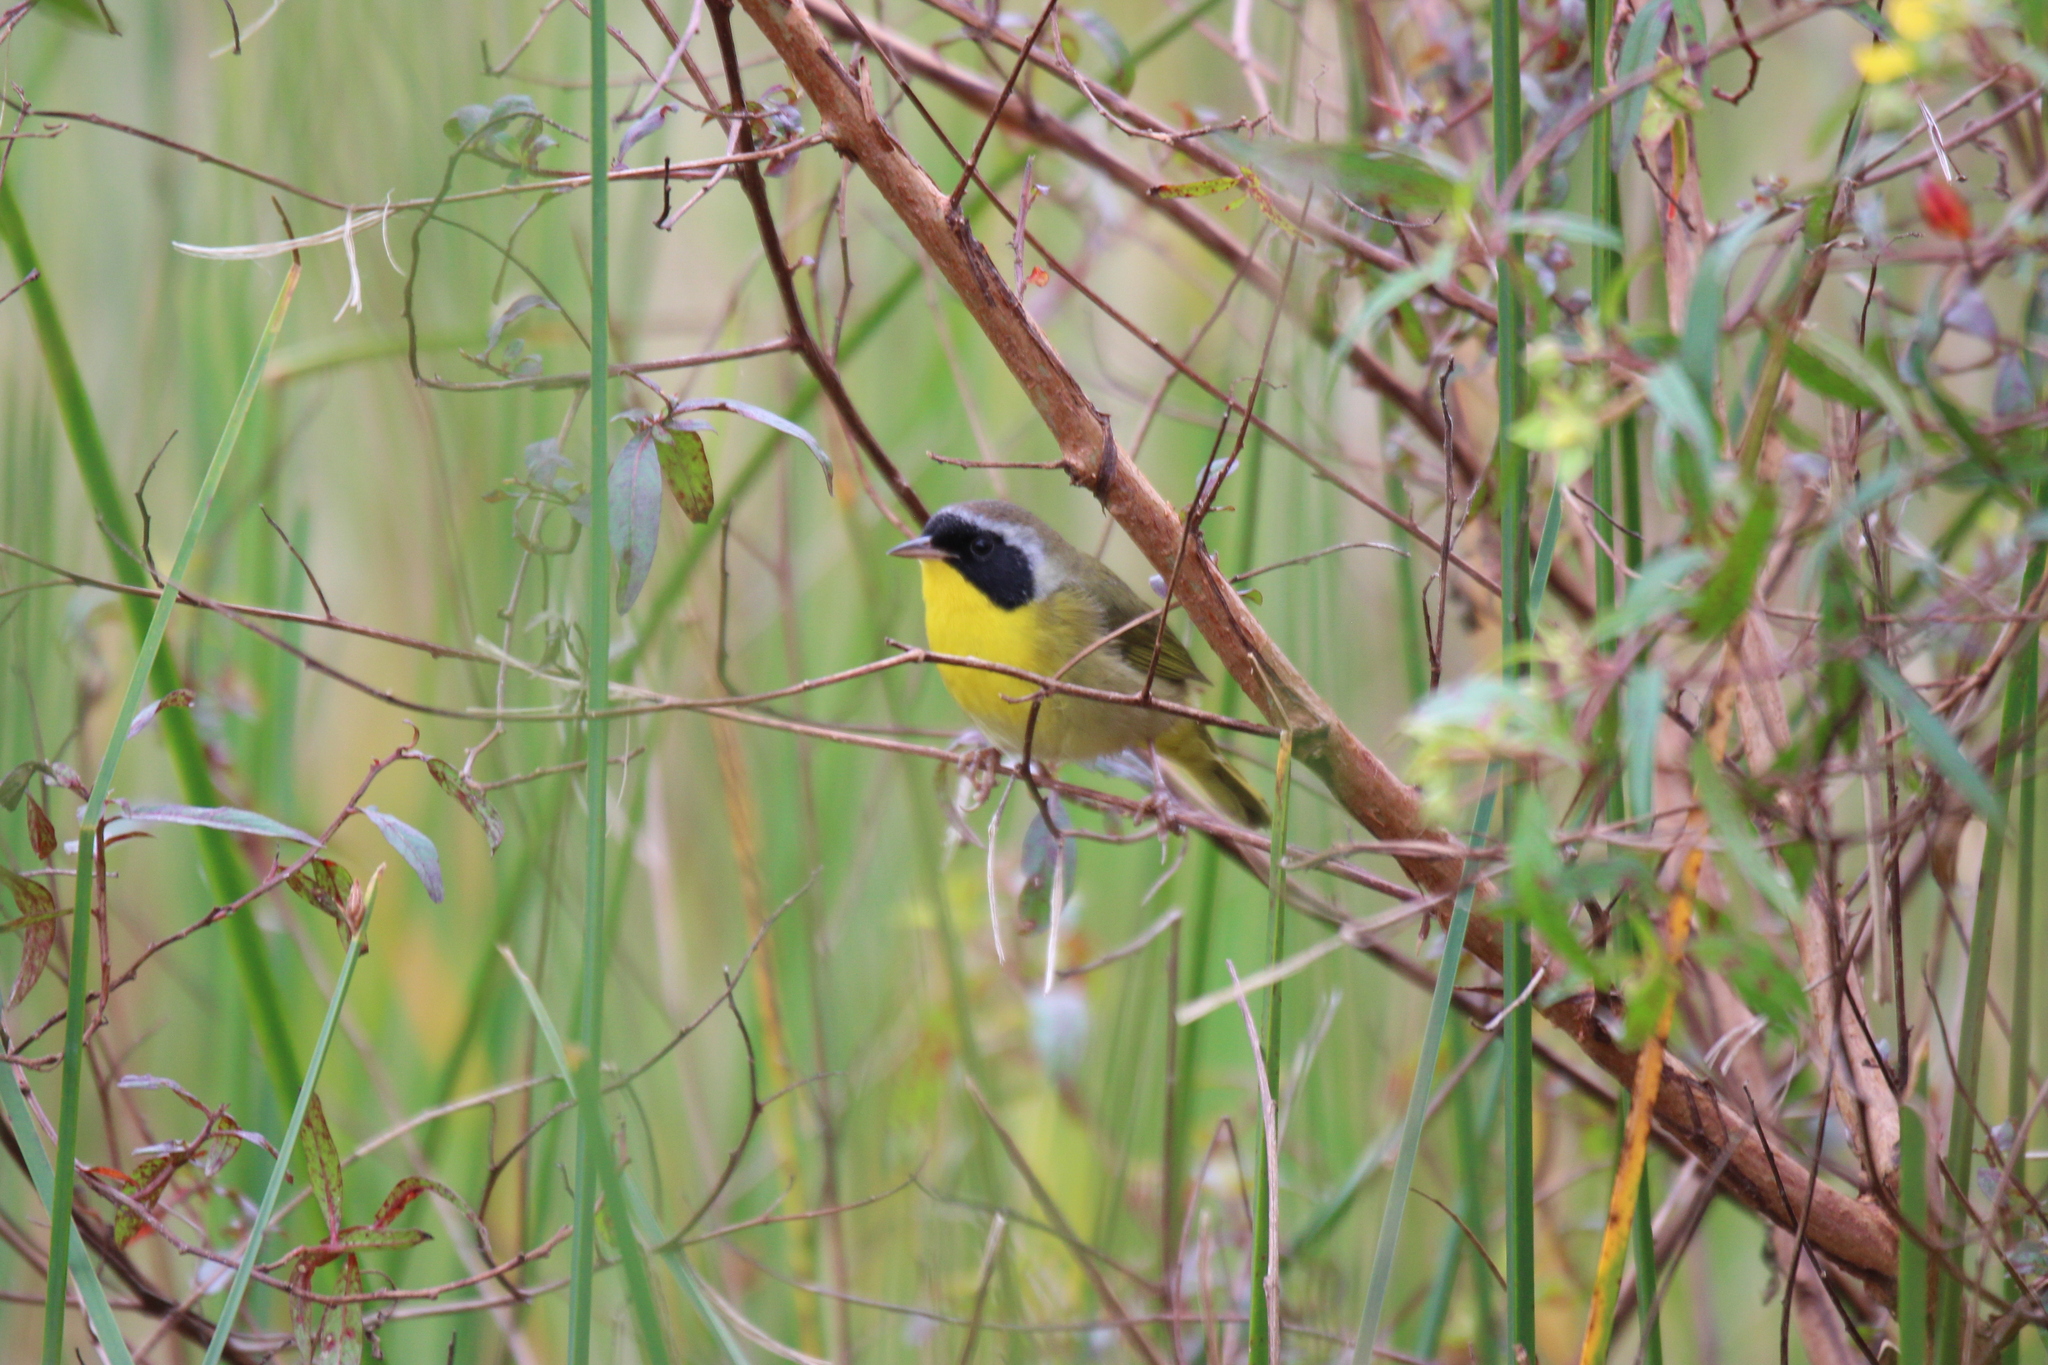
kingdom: Animalia
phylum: Chordata
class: Aves
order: Passeriformes
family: Parulidae
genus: Geothlypis
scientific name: Geothlypis trichas
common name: Common yellowthroat
